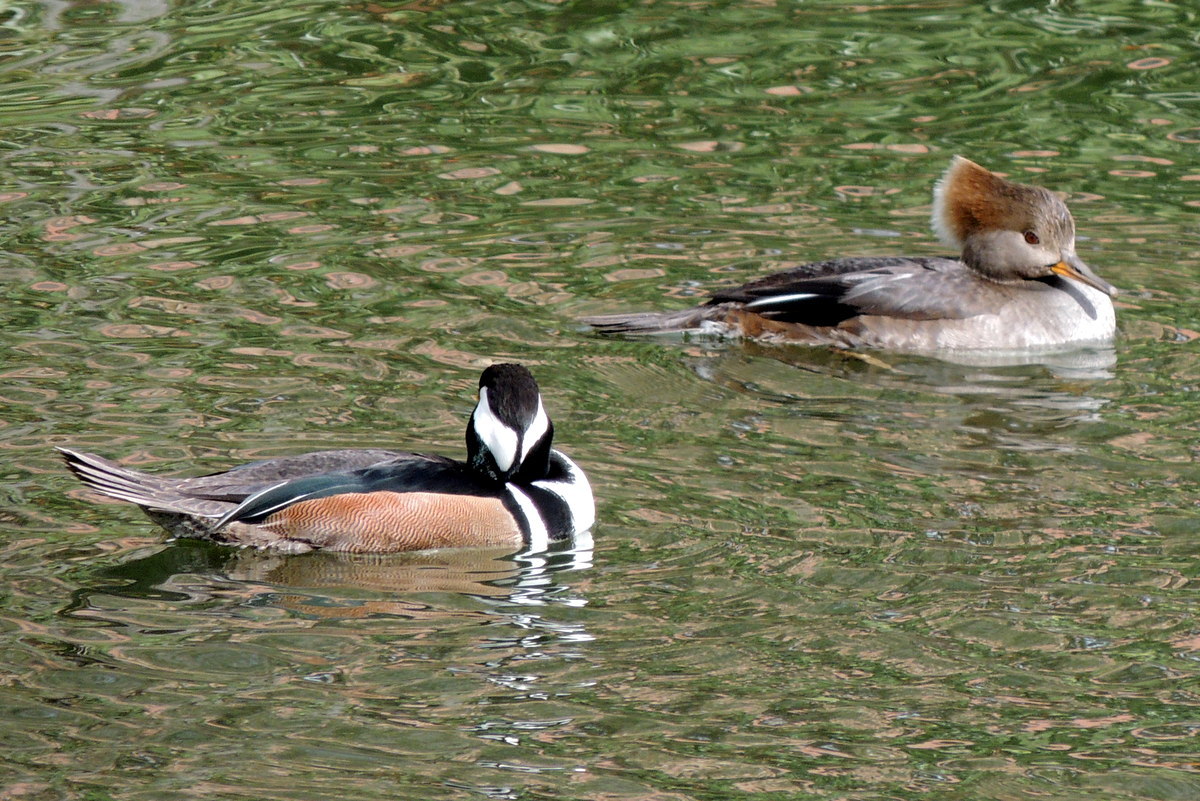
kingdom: Animalia
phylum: Chordata
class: Aves
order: Anseriformes
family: Anatidae
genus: Lophodytes
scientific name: Lophodytes cucullatus
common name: Hooded merganser
